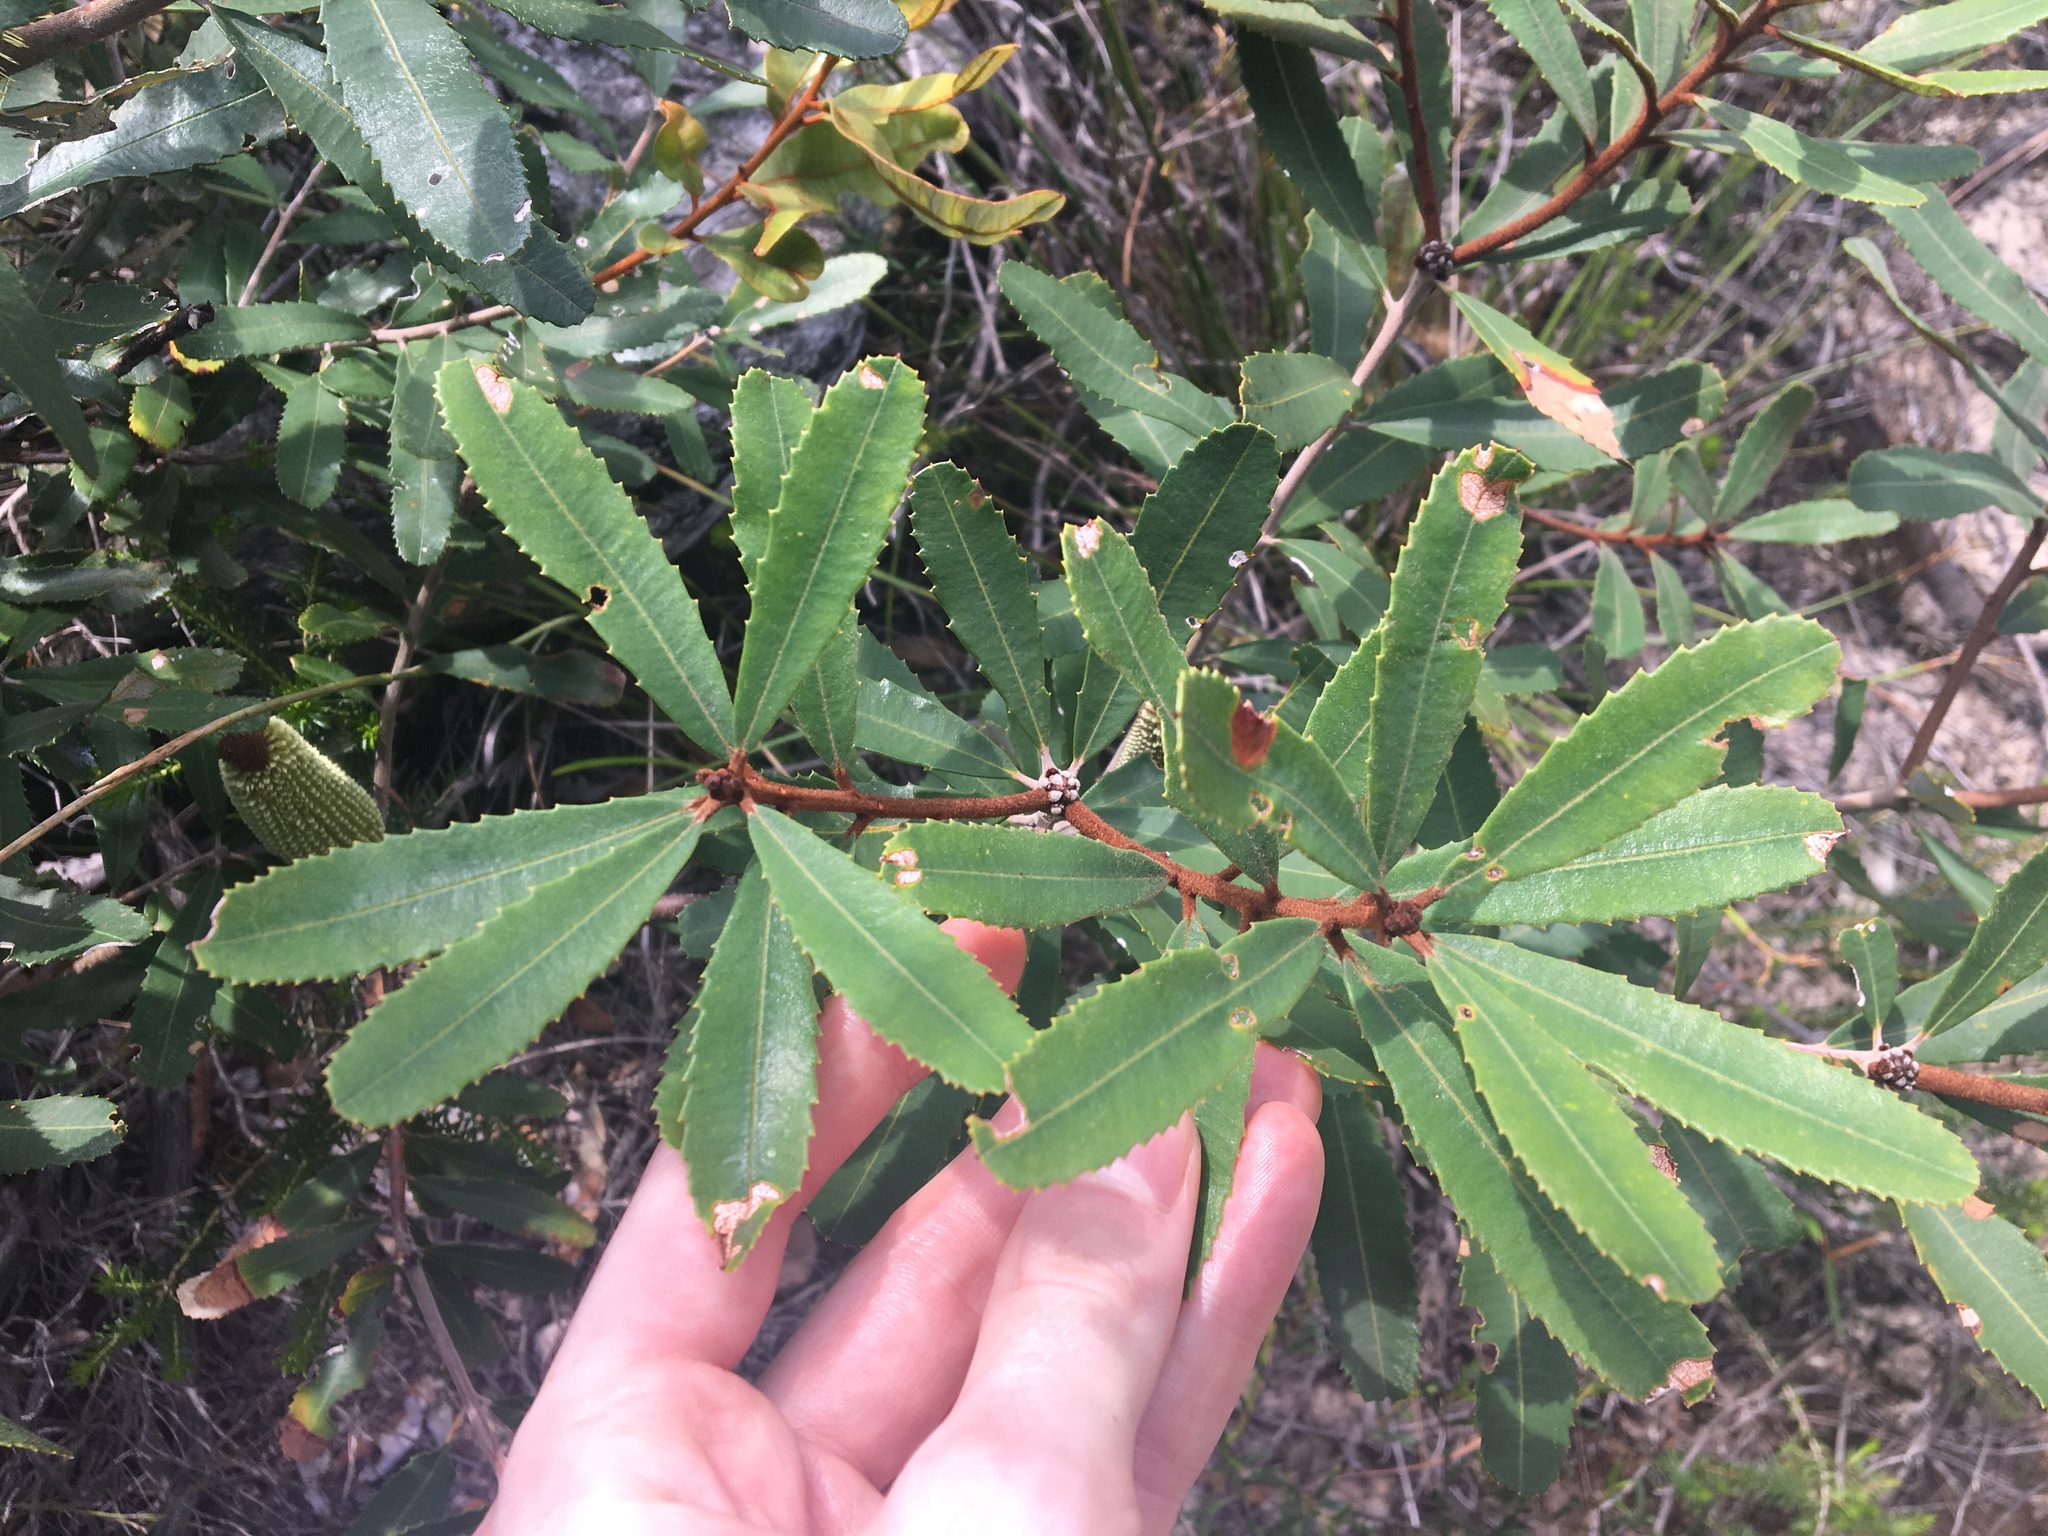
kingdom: Plantae
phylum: Tracheophyta
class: Magnoliopsida
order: Proteales
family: Proteaceae
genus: Banksia
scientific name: Banksia oblongifolia
